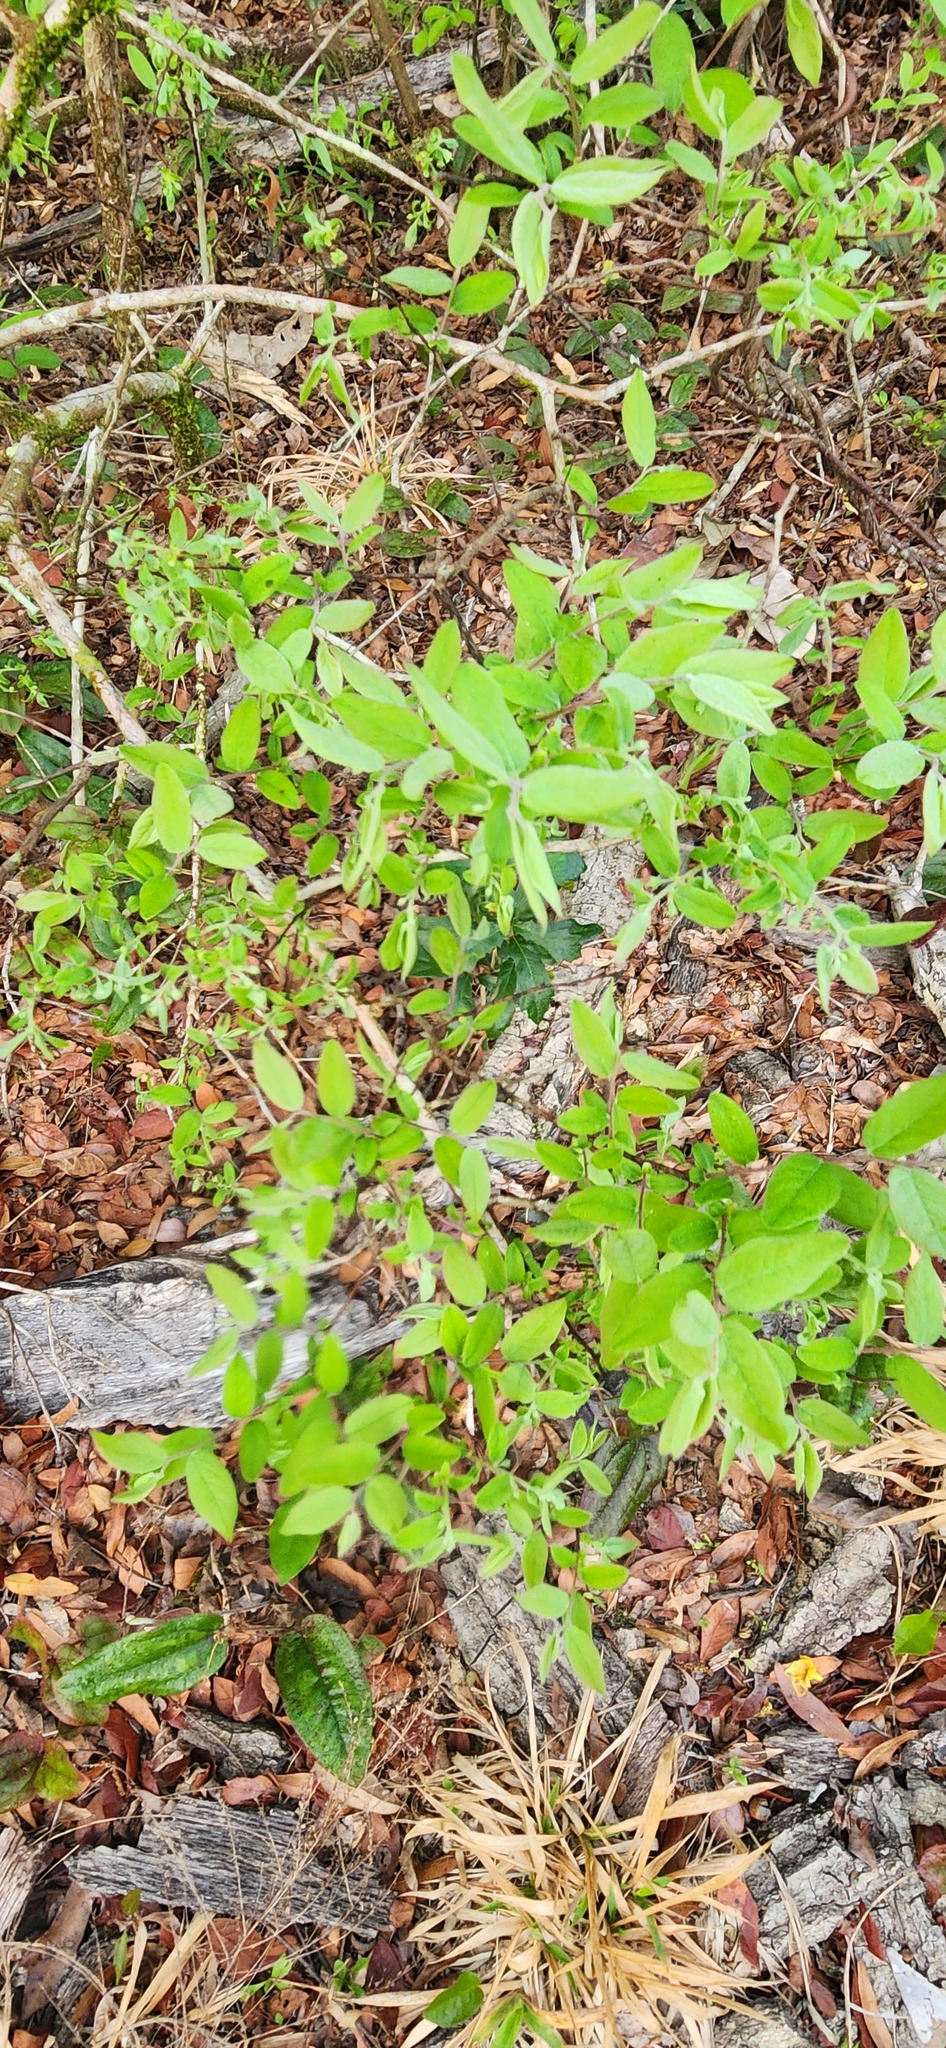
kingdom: Plantae
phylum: Tracheophyta
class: Magnoliopsida
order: Ericales
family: Ericaceae
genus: Vaccinium
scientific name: Vaccinium stamineum
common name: Deerberry
